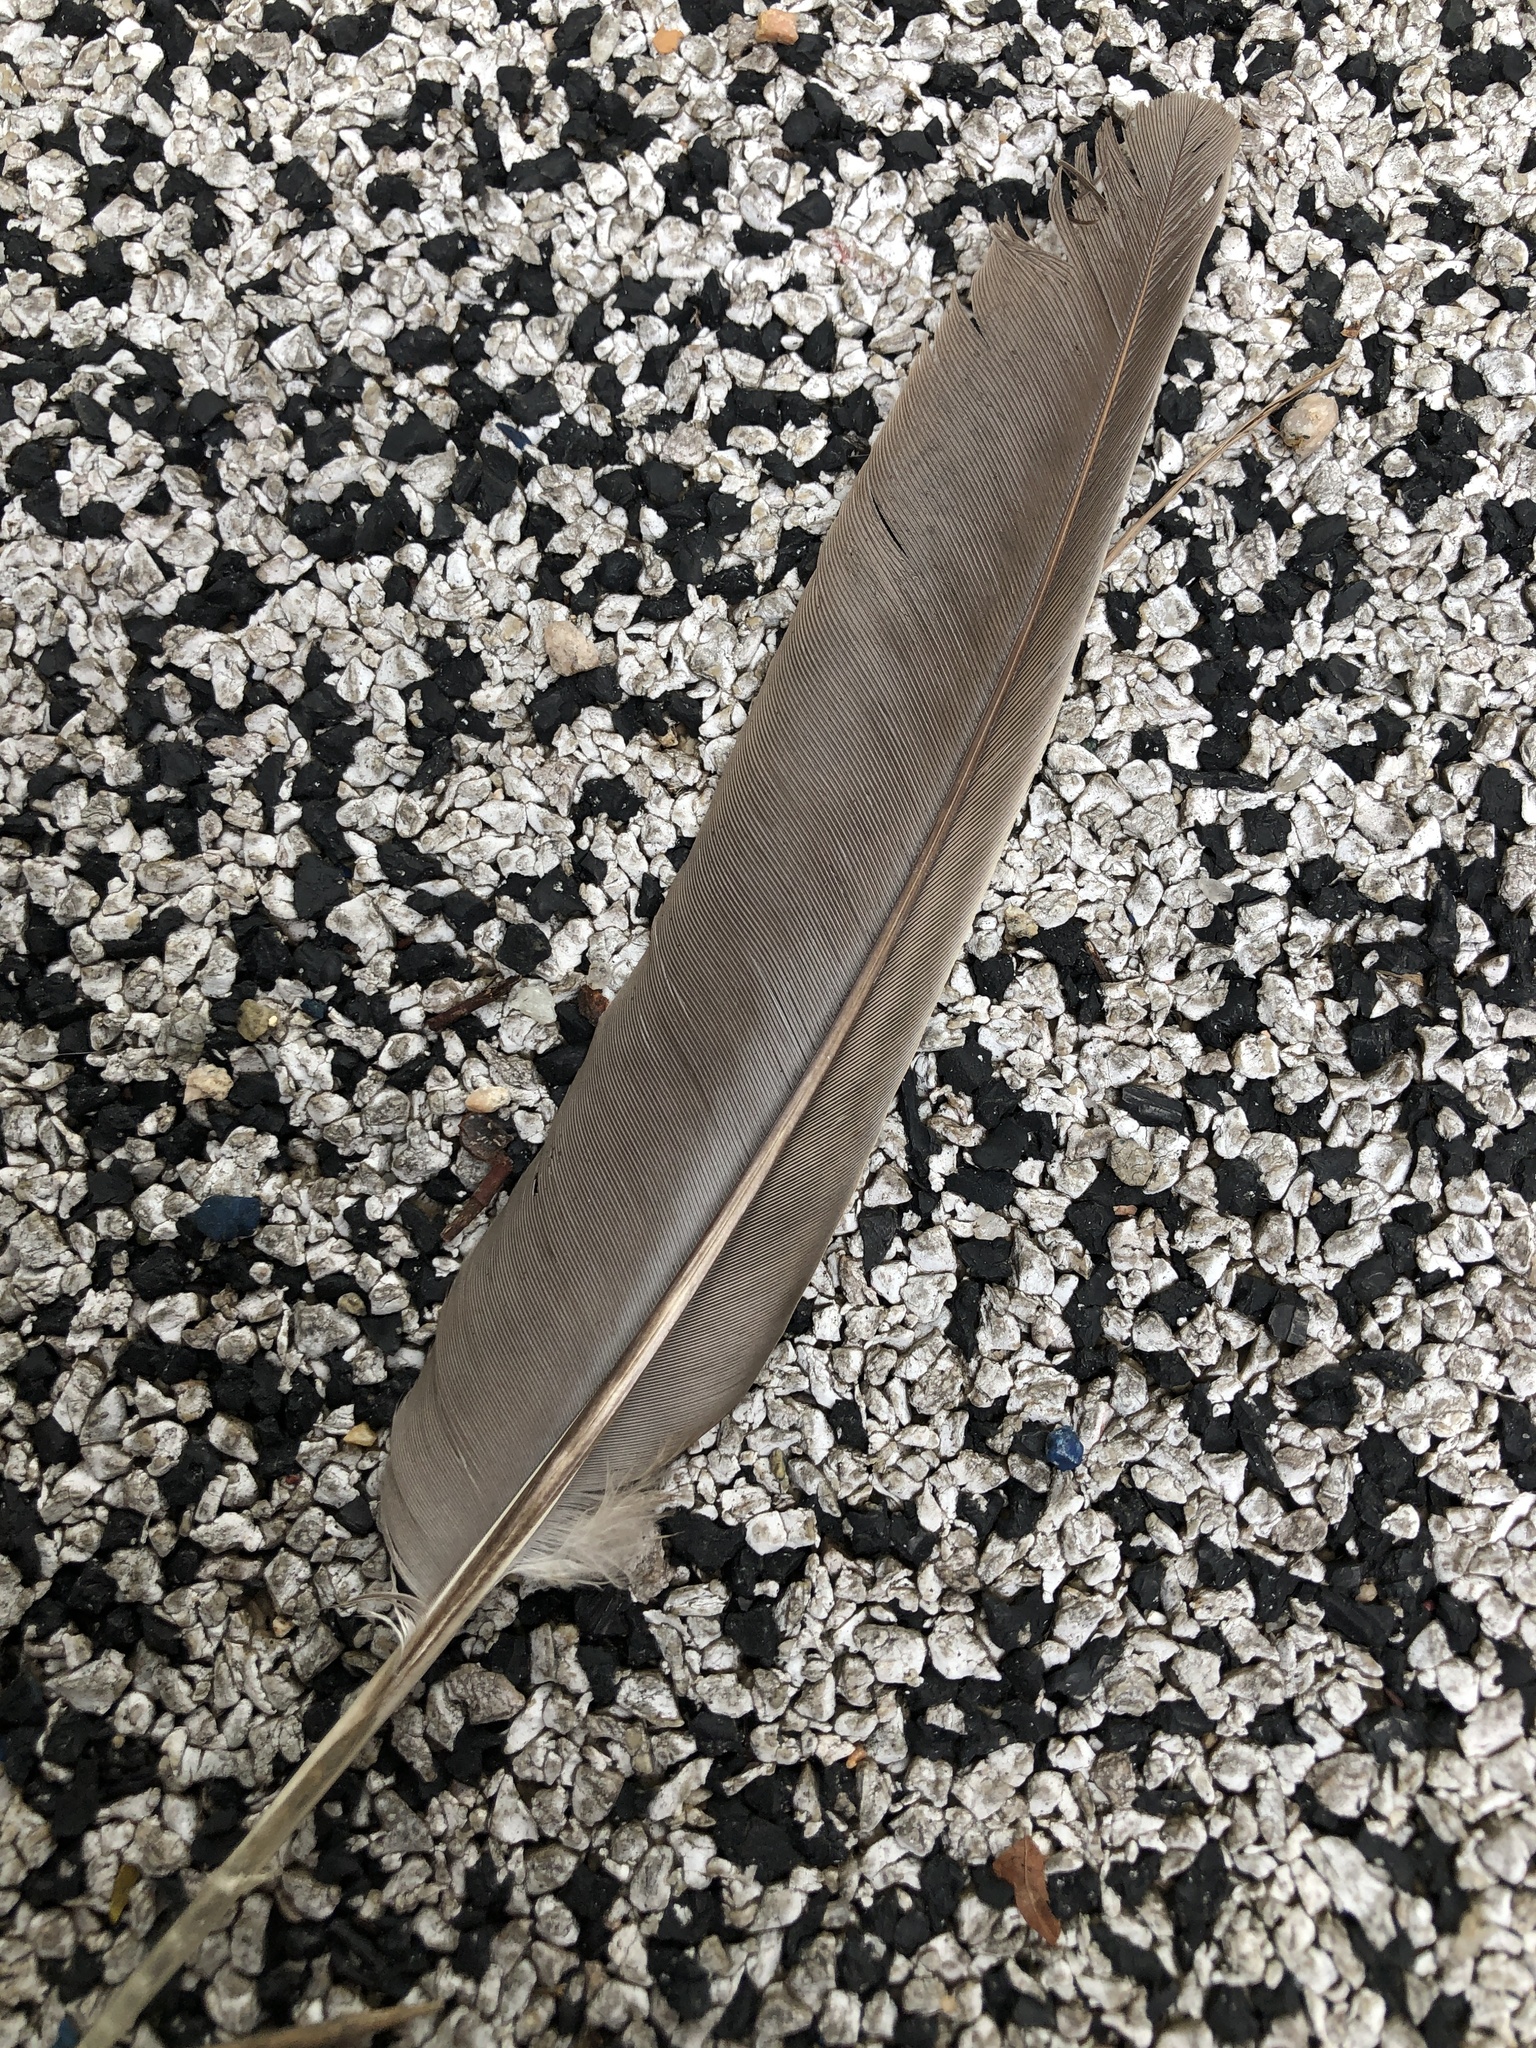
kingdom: Animalia
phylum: Chordata
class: Aves
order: Columbiformes
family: Columbidae
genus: Streptopelia
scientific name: Streptopelia orientalis
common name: Oriental turtle dove
